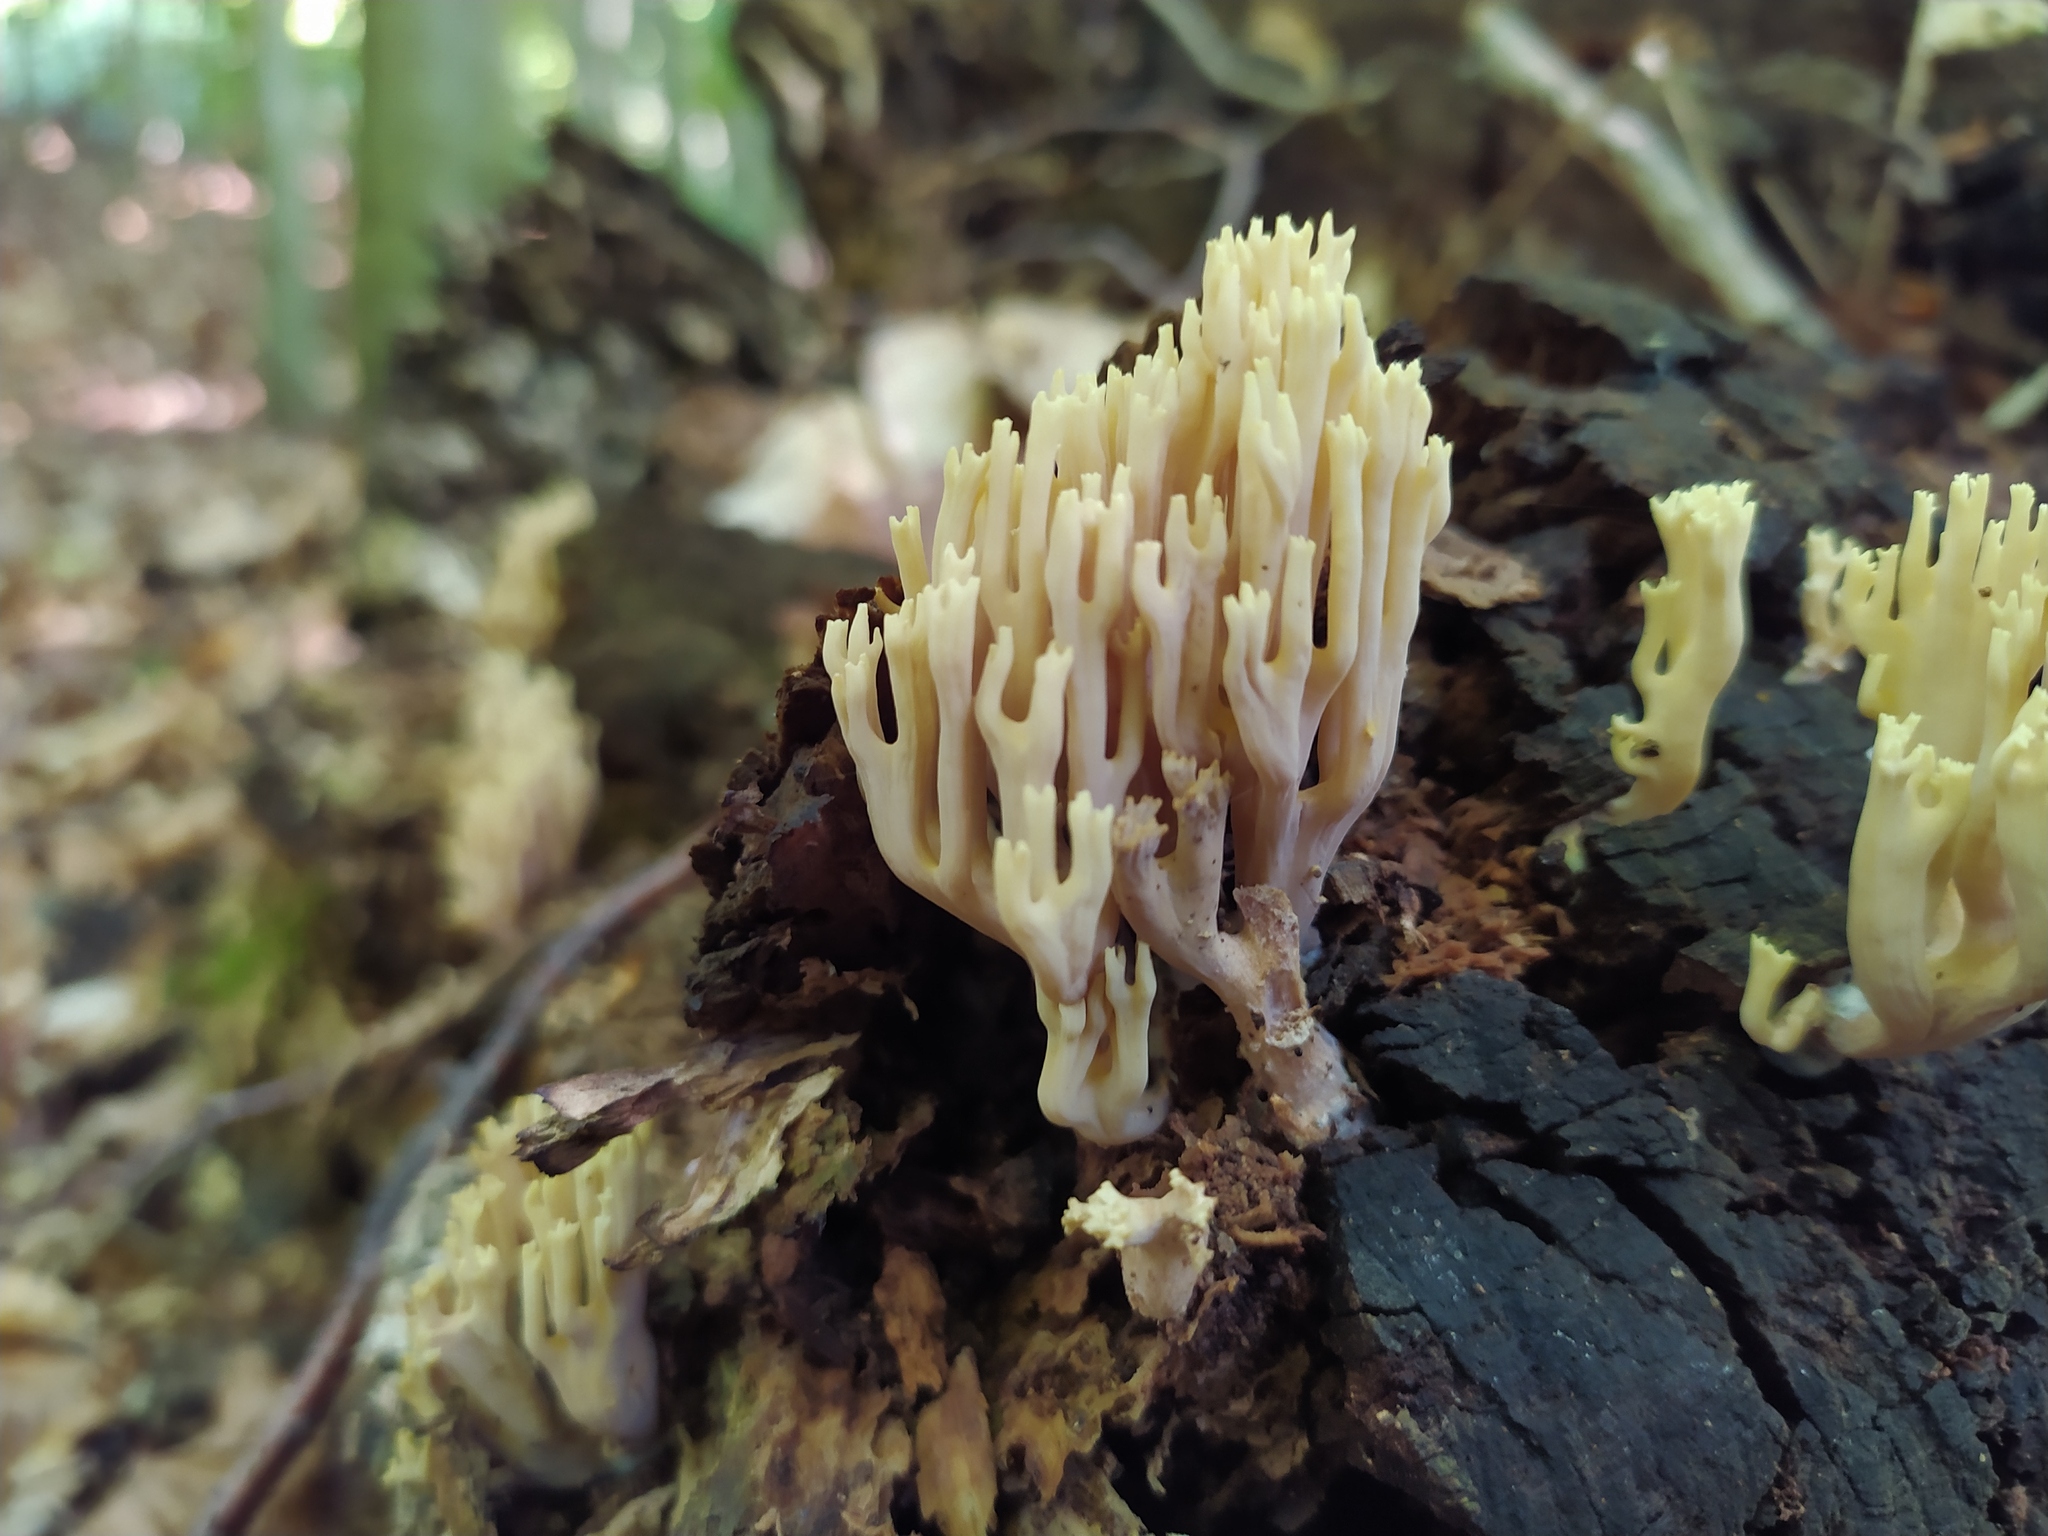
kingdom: Fungi
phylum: Basidiomycota
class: Agaricomycetes
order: Gomphales
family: Gomphaceae
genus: Ramaria
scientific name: Ramaria stricta
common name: Upright coral
